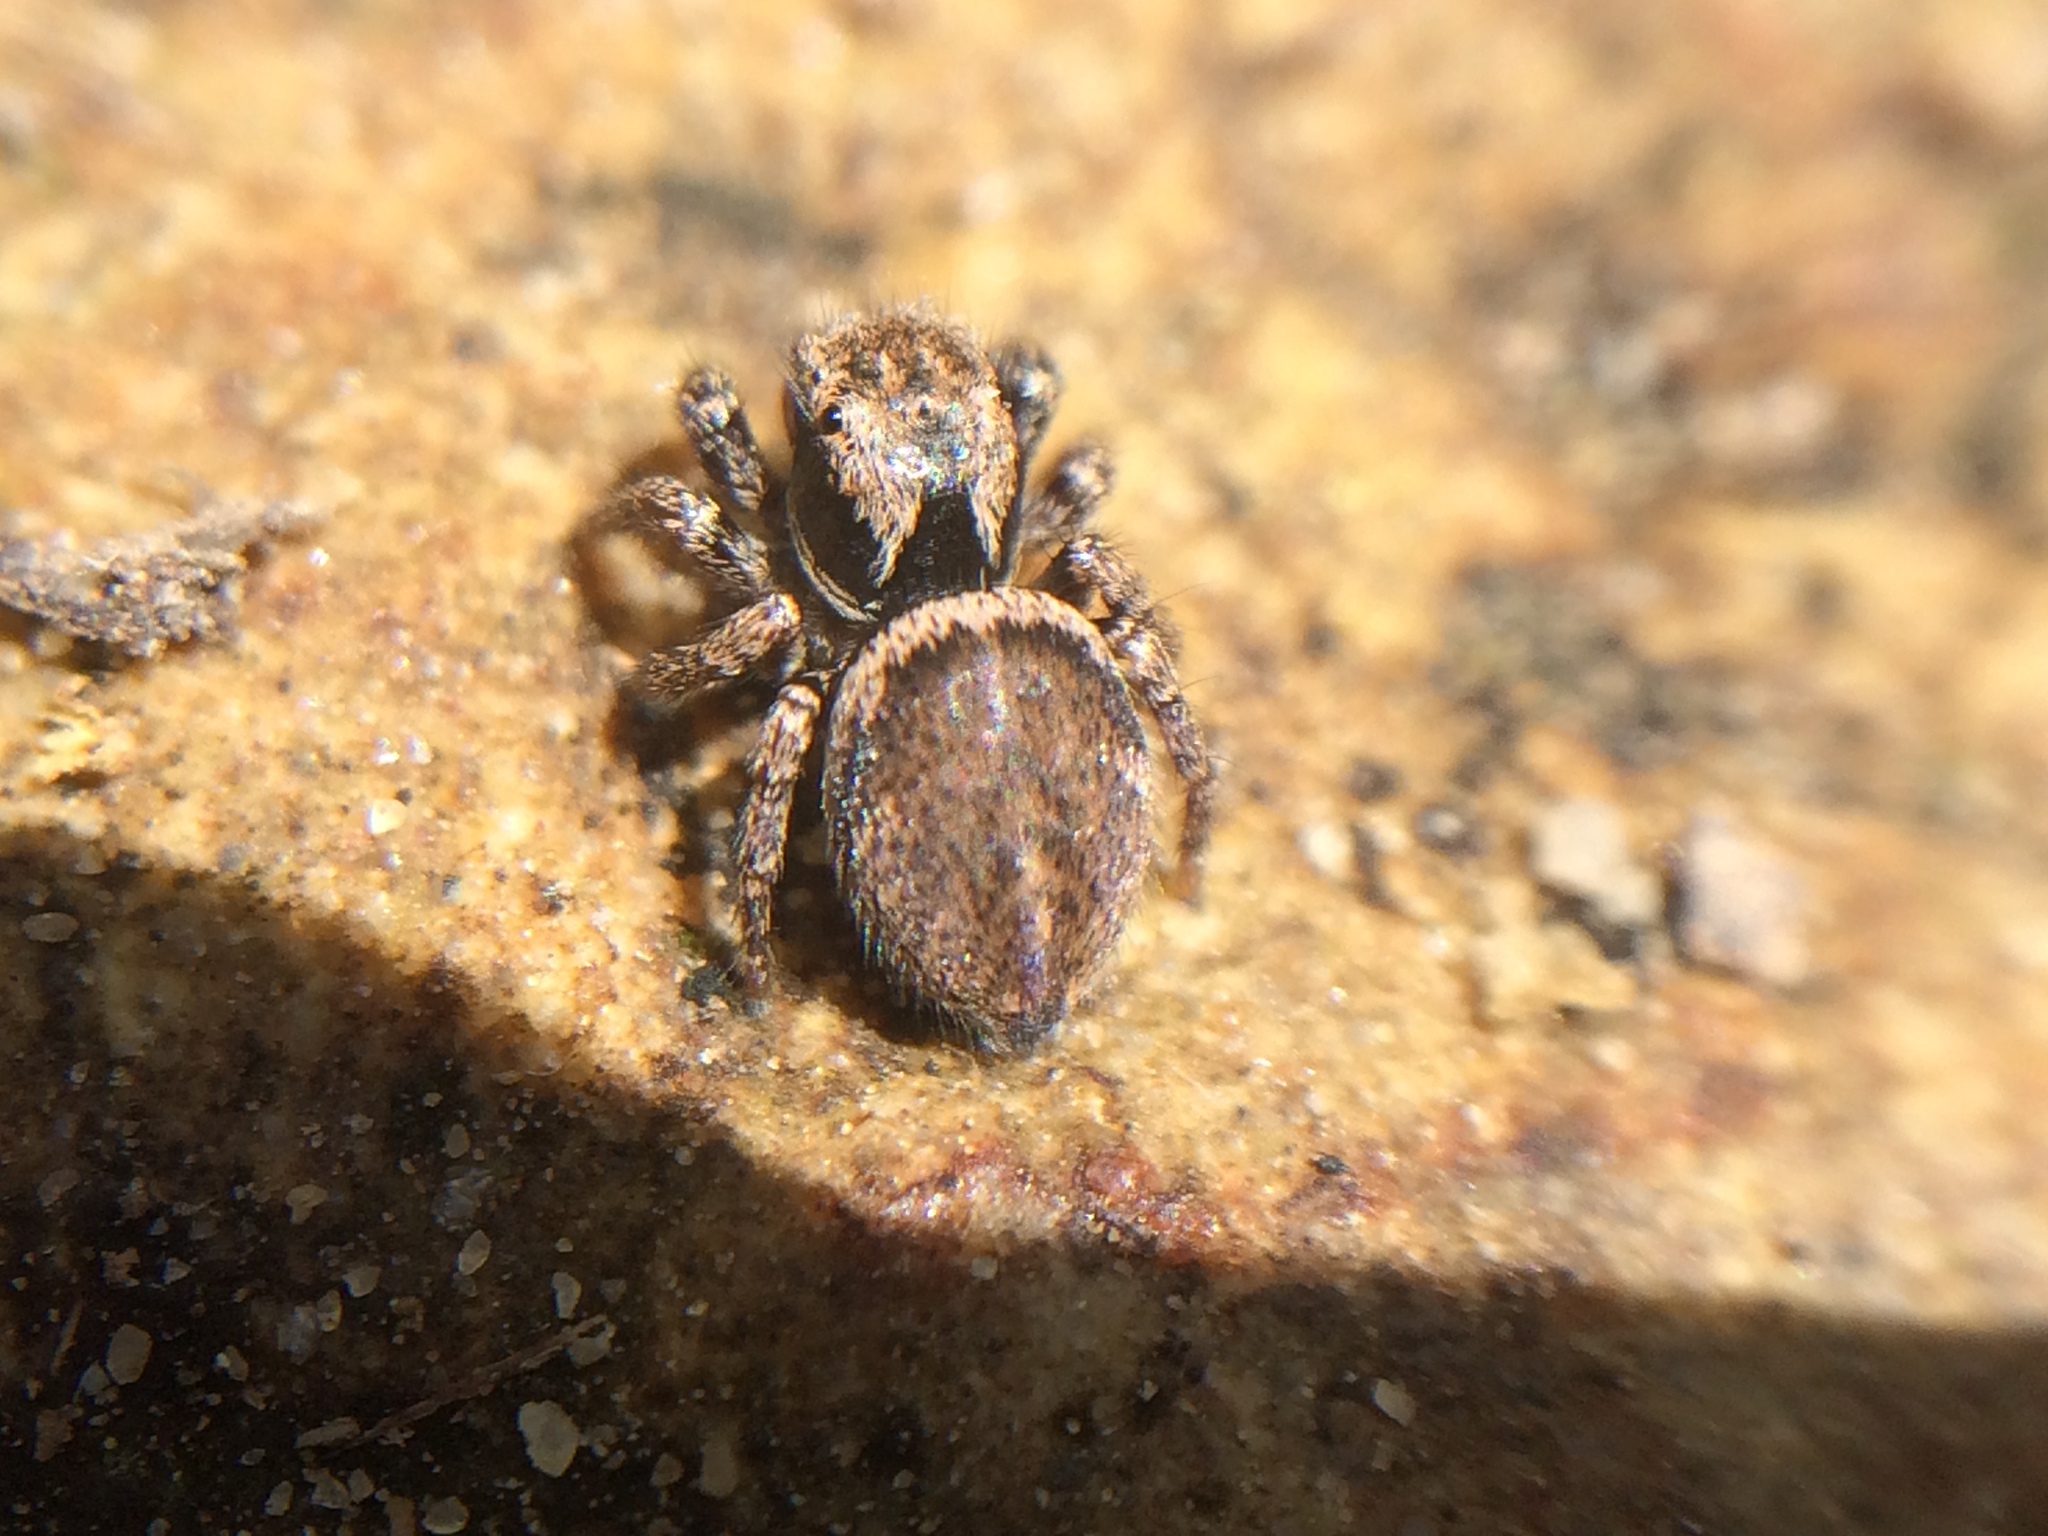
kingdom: Animalia
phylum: Arthropoda
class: Arachnida
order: Araneae
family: Salticidae
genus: Habronattus
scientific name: Habronattus oregonensis
